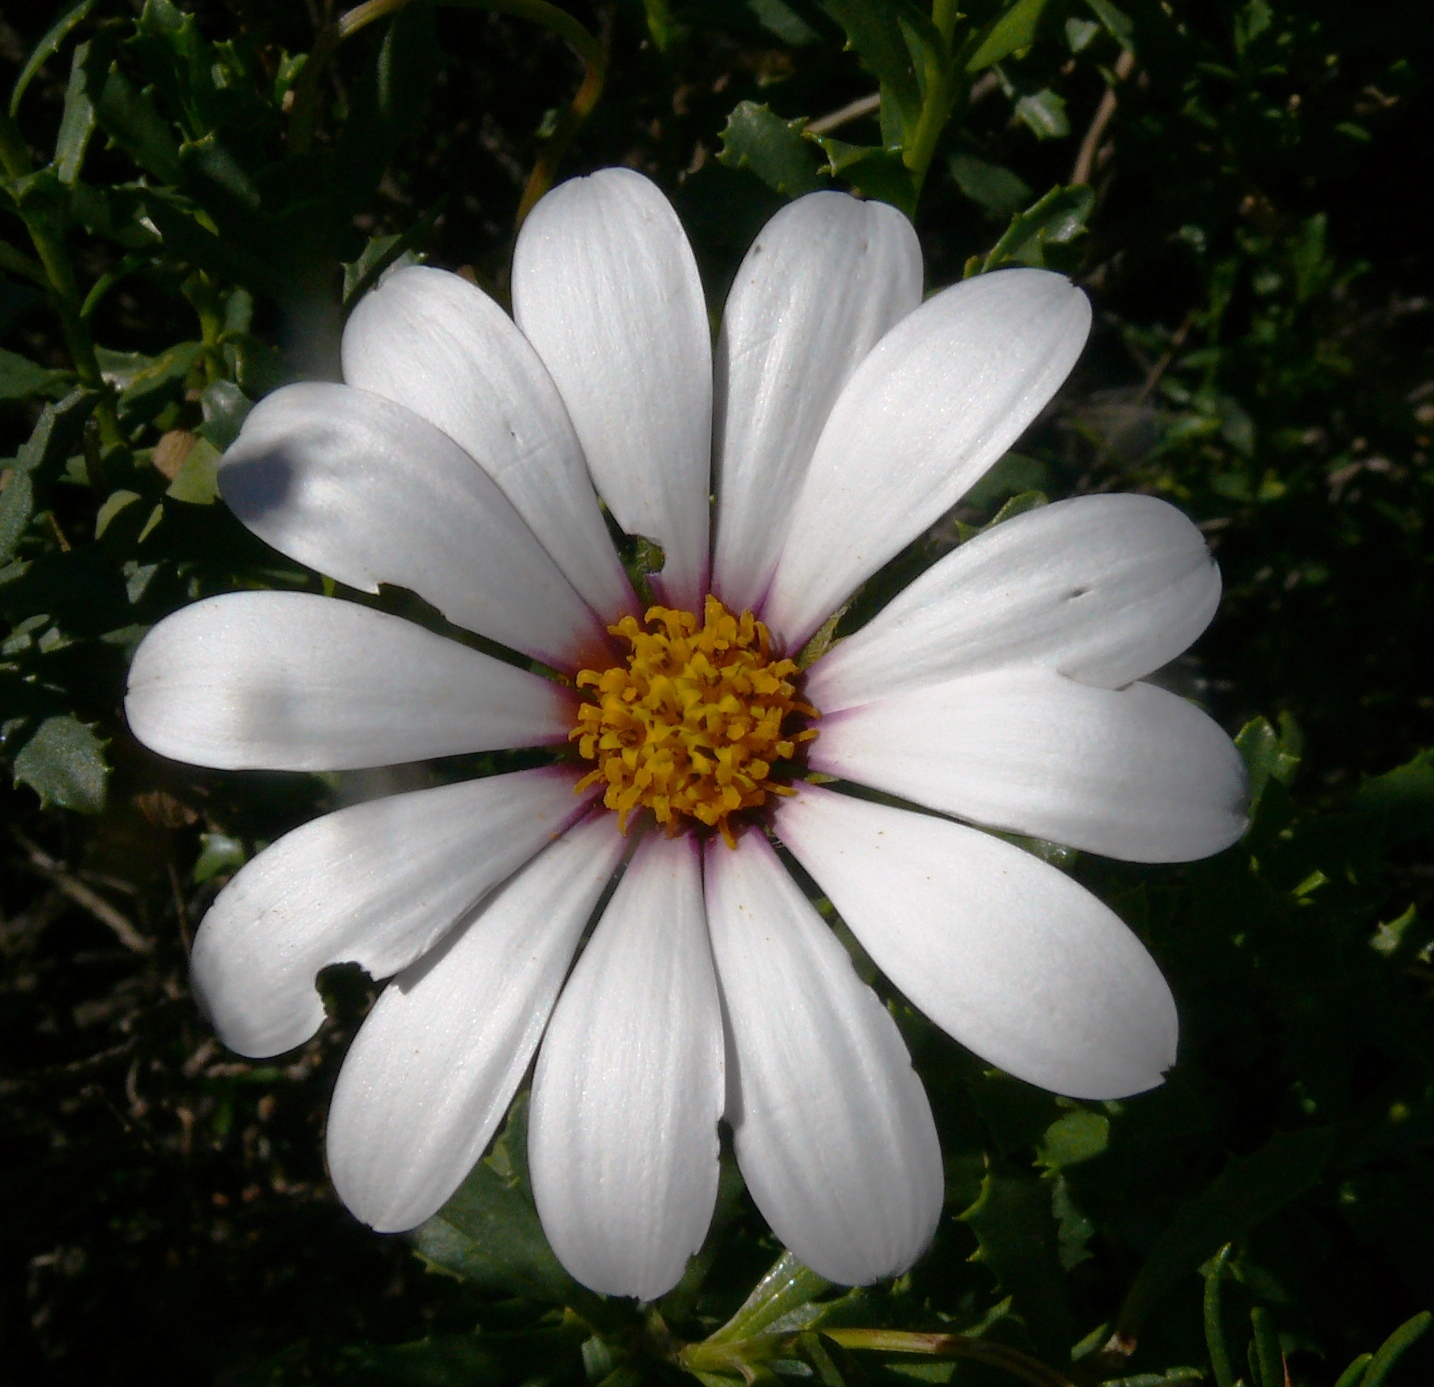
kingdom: Plantae
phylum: Tracheophyta
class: Magnoliopsida
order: Asterales
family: Asteraceae
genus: Dimorphotheca
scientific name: Dimorphotheca cuneata
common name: Daisy
